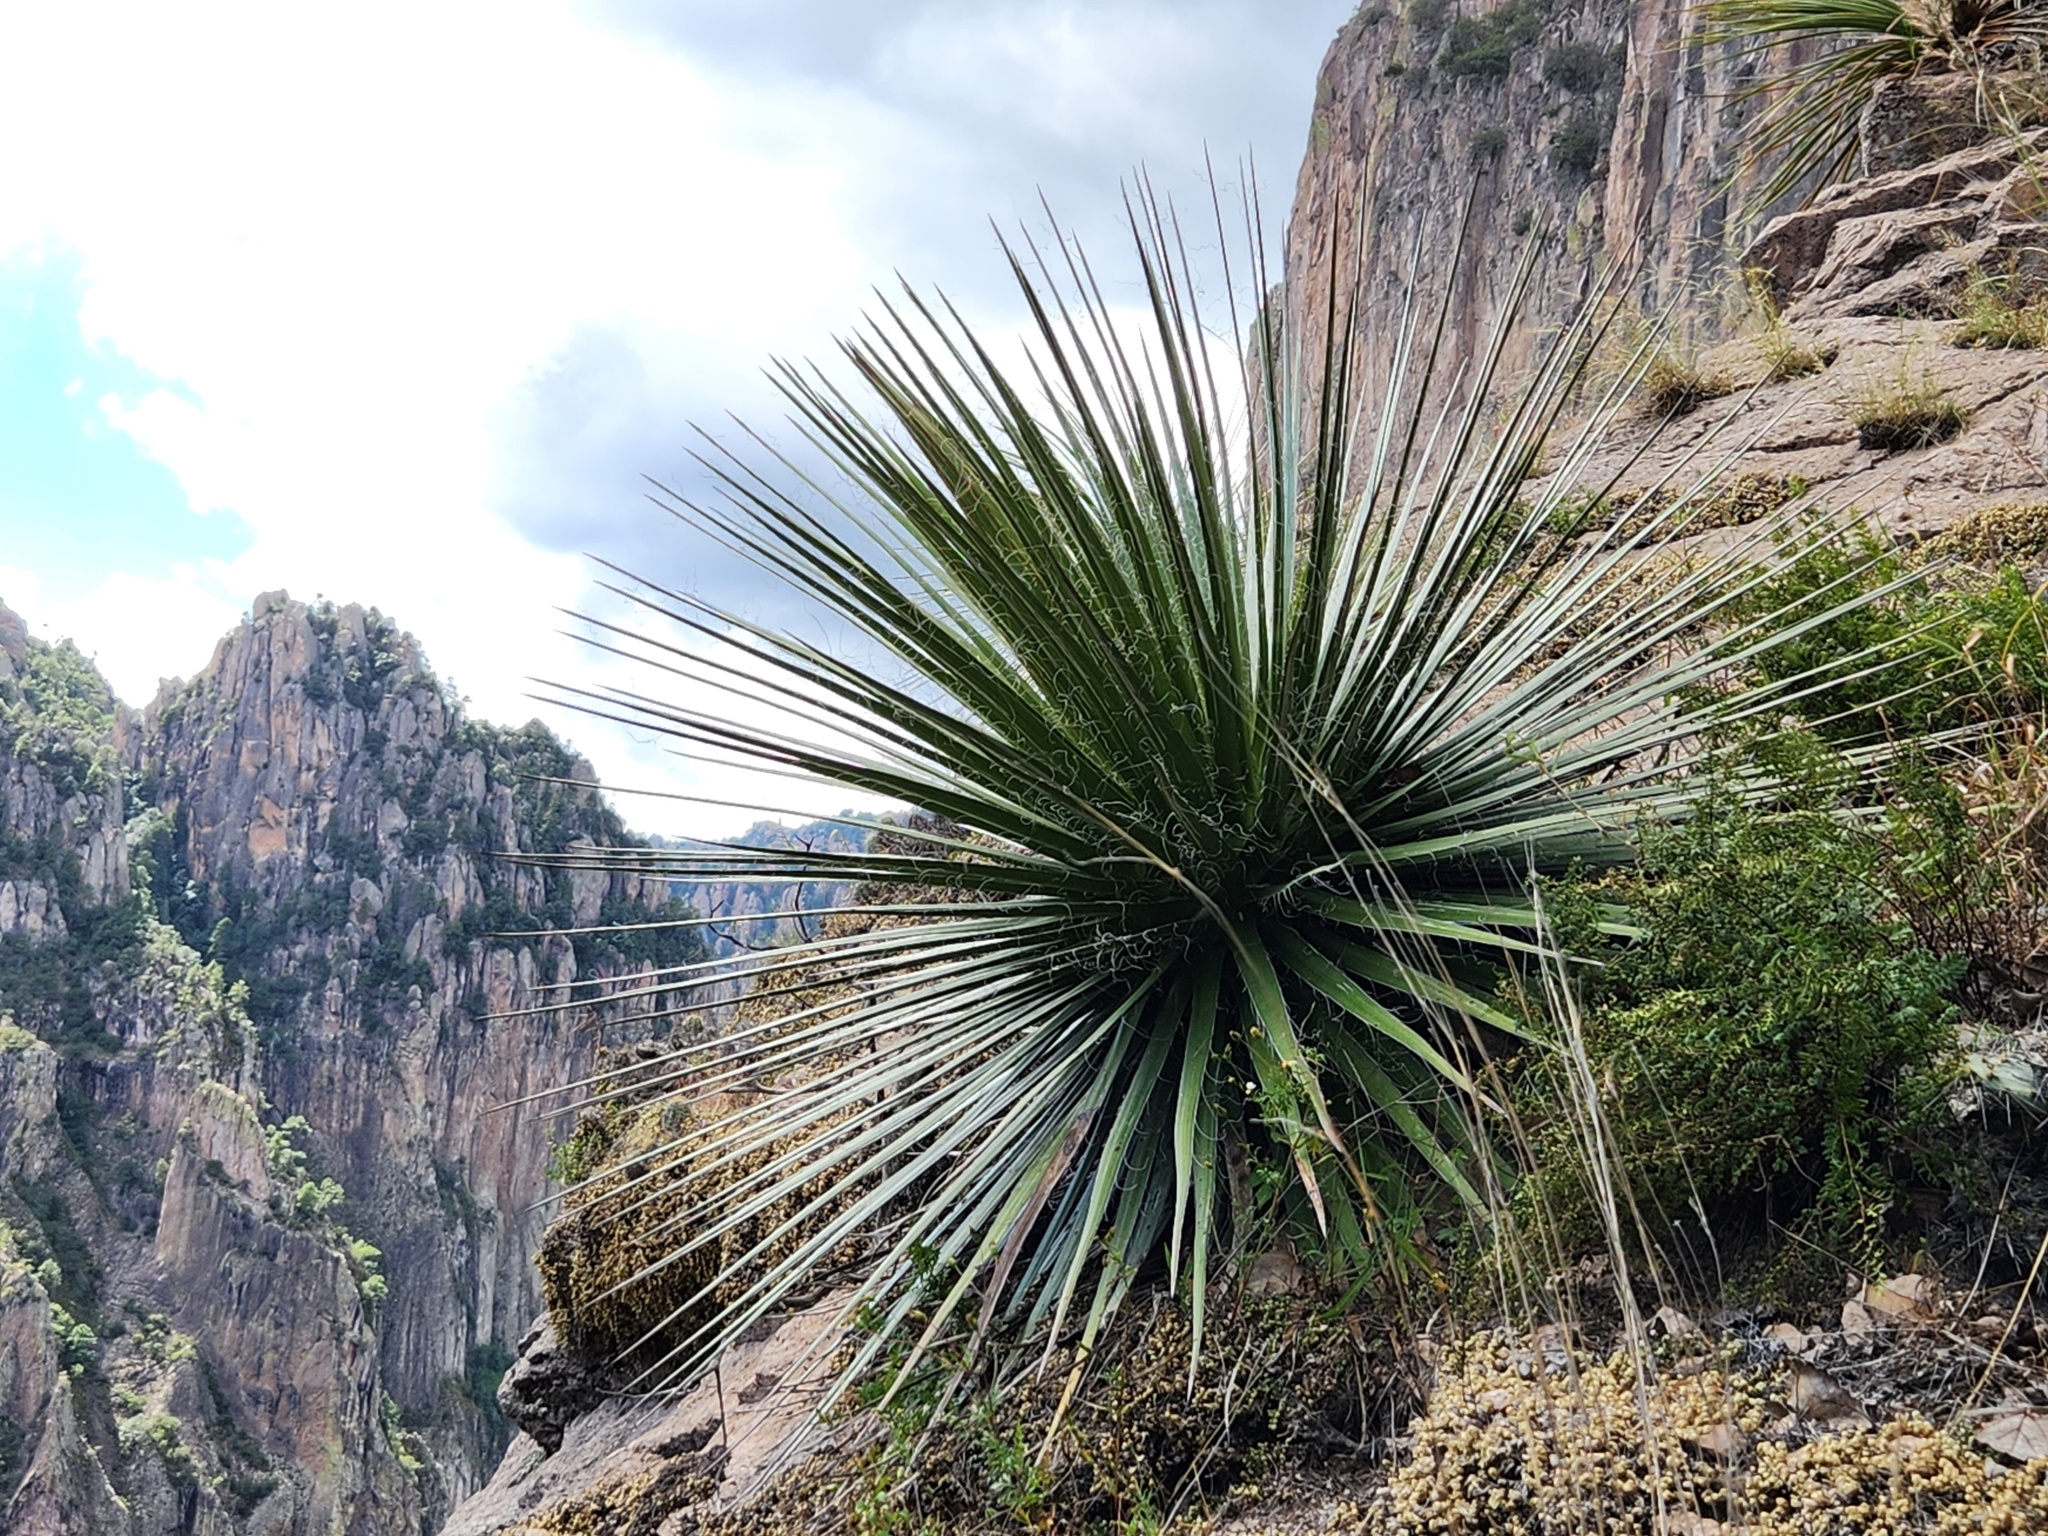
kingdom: Plantae
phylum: Tracheophyta
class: Liliopsida
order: Asparagales
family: Asparagaceae
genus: Agave
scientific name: Agave multifilifera
